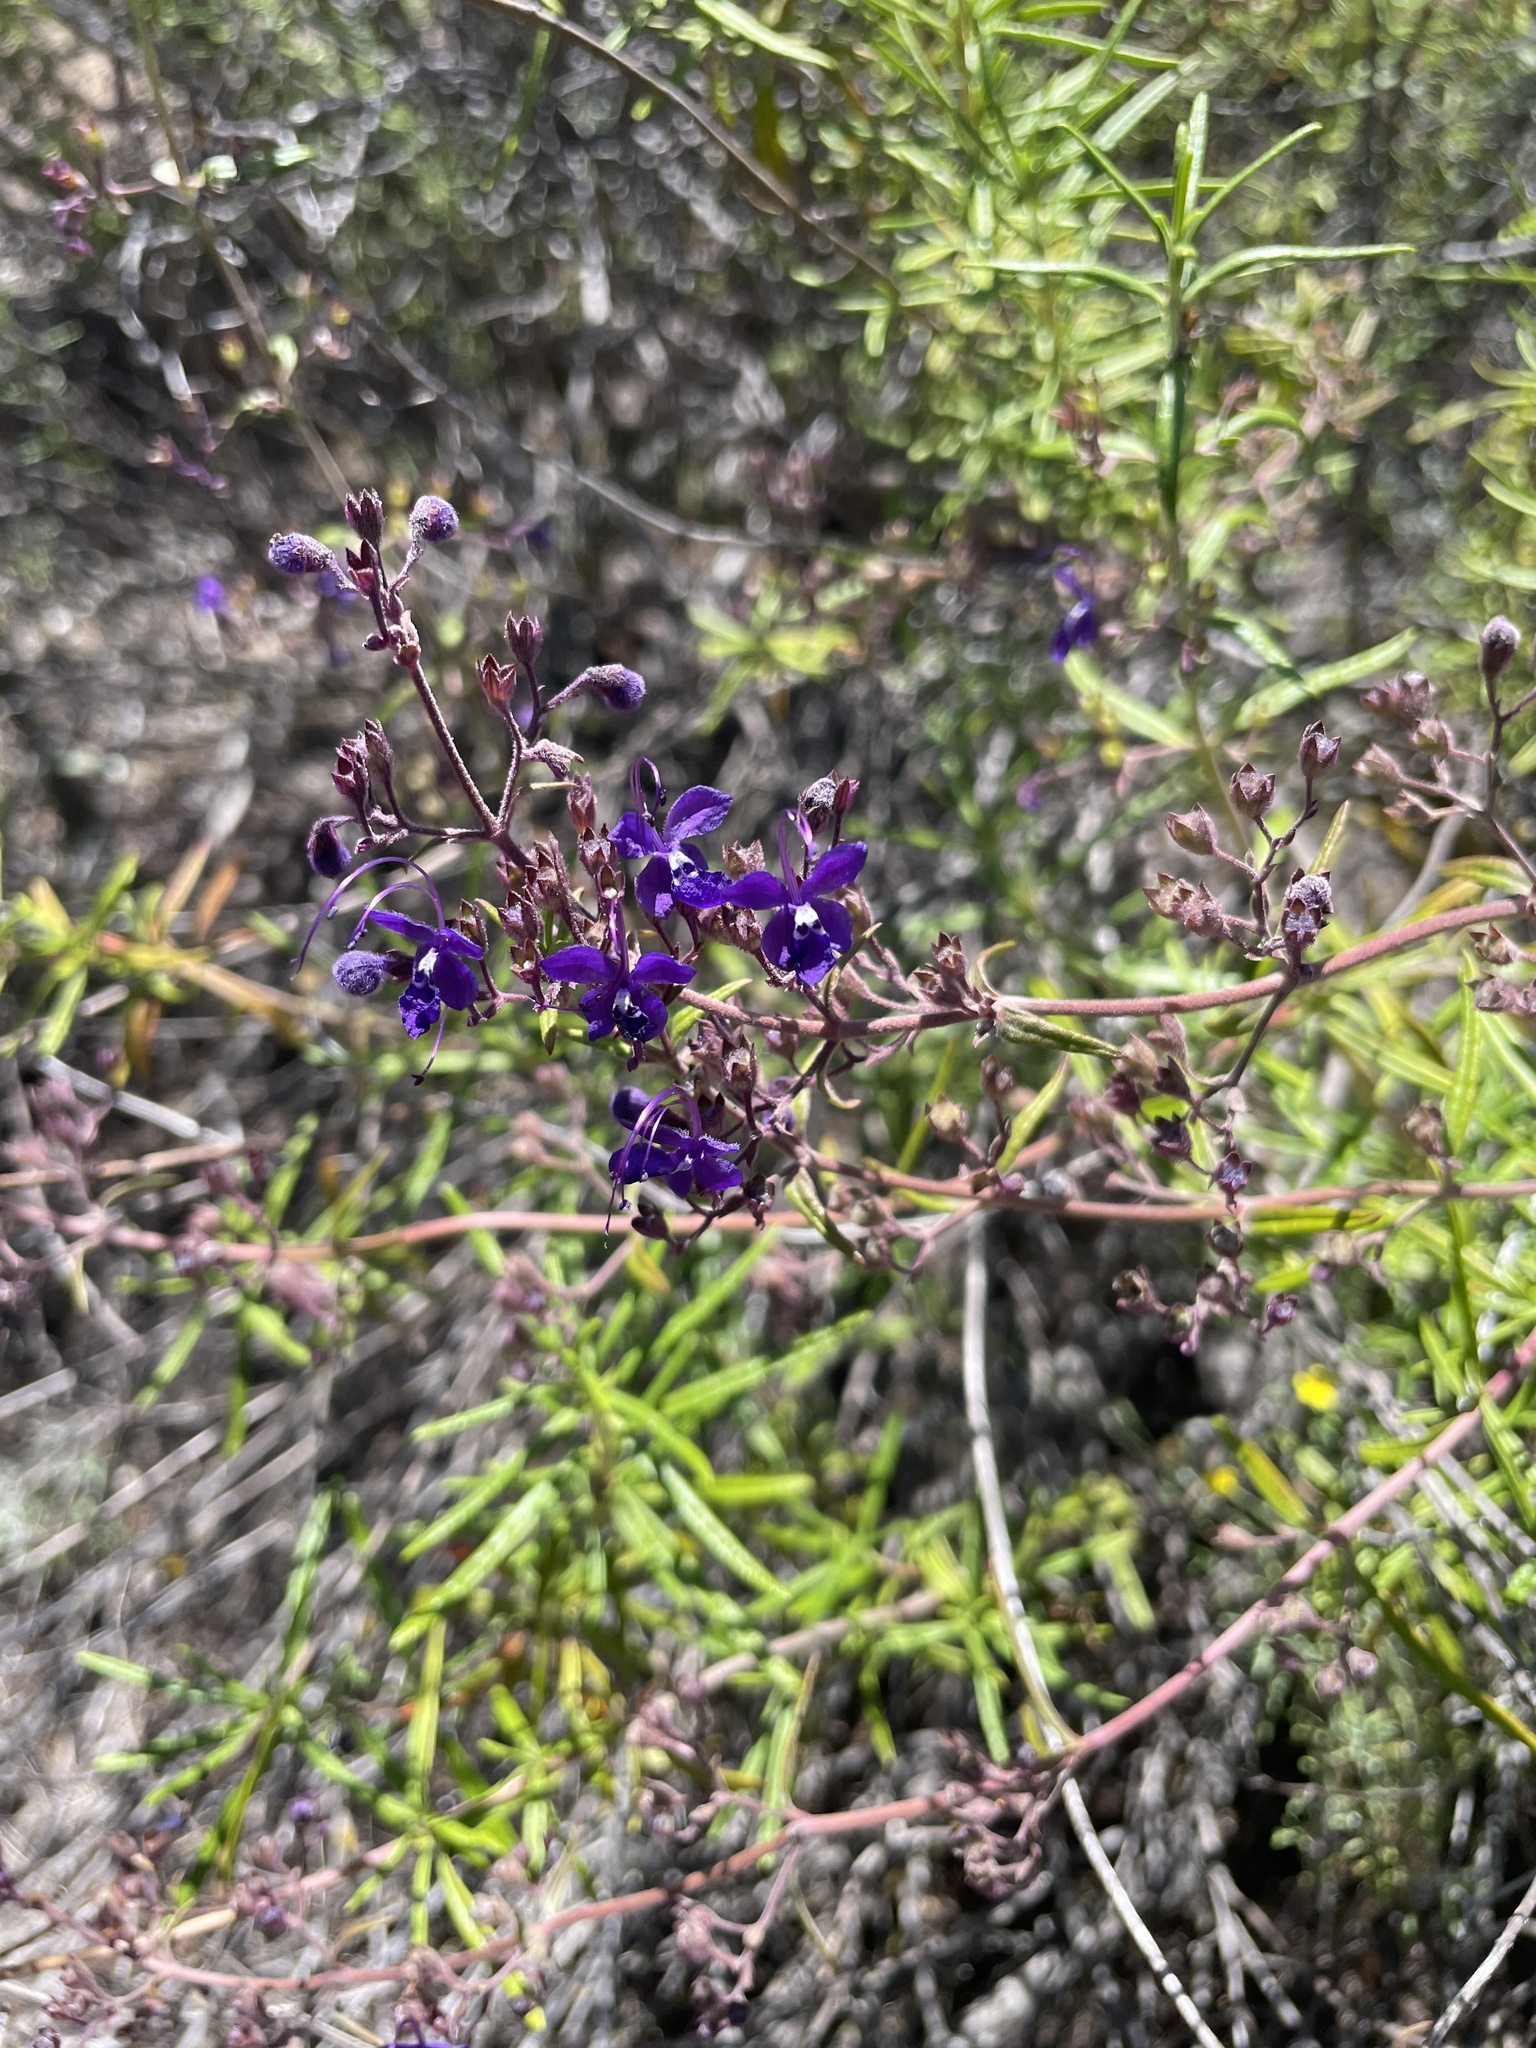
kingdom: Plantae
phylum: Tracheophyta
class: Magnoliopsida
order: Lamiales
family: Lamiaceae
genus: Trichostema
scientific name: Trichostema parishii
